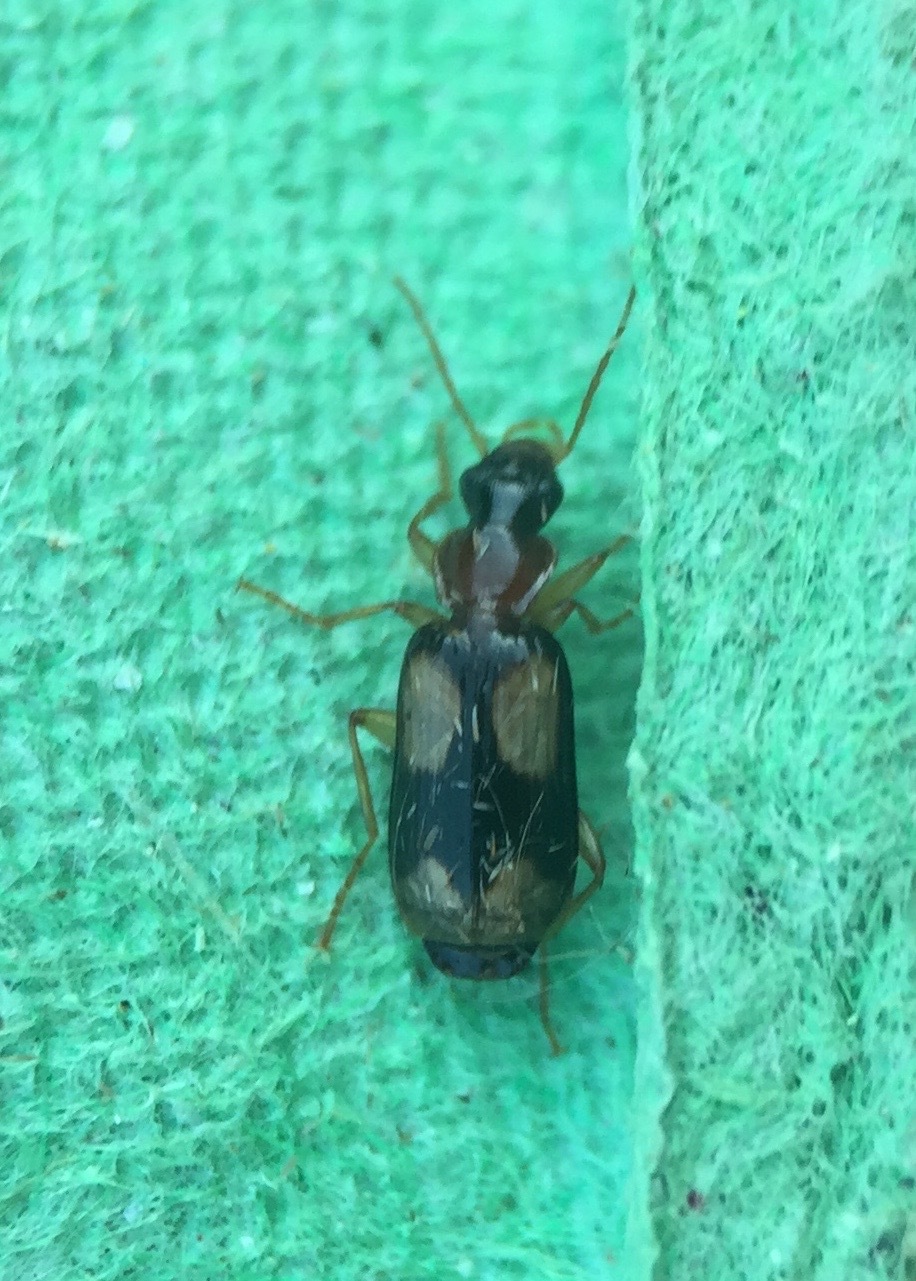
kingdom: Animalia
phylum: Arthropoda
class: Insecta
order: Coleoptera
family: Carabidae
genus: Dromius
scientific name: Dromius quadrimaculatus
